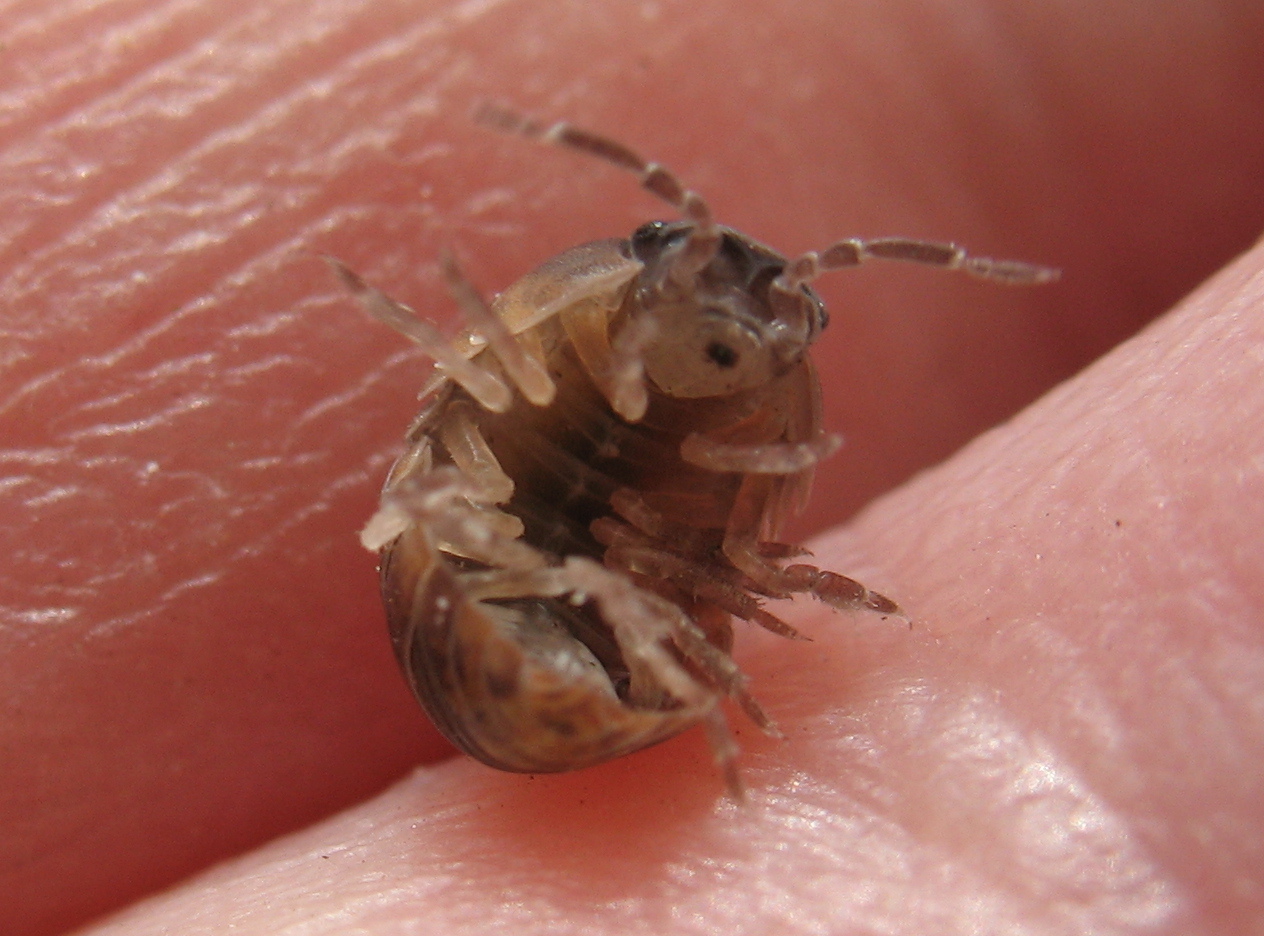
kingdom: Animalia
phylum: Arthropoda
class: Malacostraca
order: Isopoda
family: Armadillidiidae
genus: Armadillidium
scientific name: Armadillidium vulgare
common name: Common pill woodlouse
